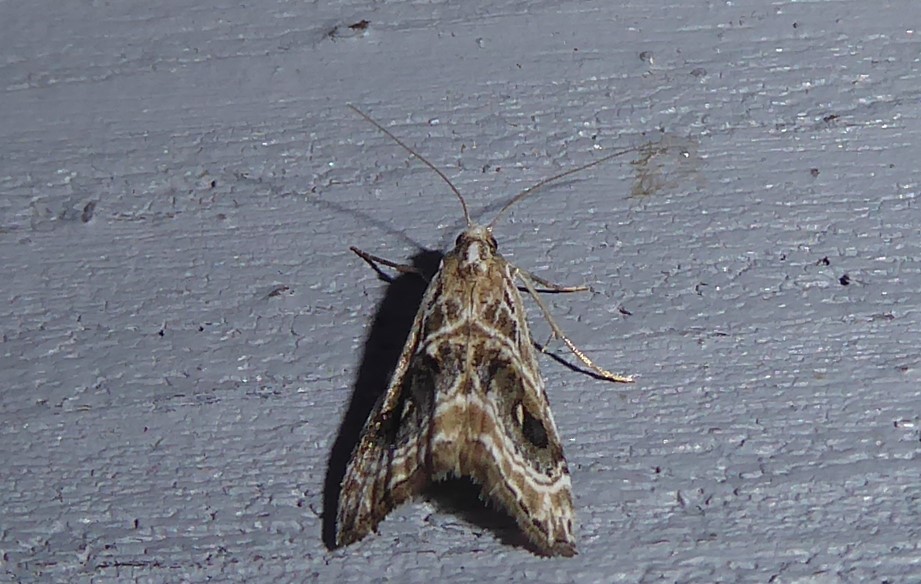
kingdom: Animalia
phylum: Arthropoda
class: Insecta
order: Lepidoptera
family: Crambidae
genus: Gadira
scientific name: Gadira acerella
